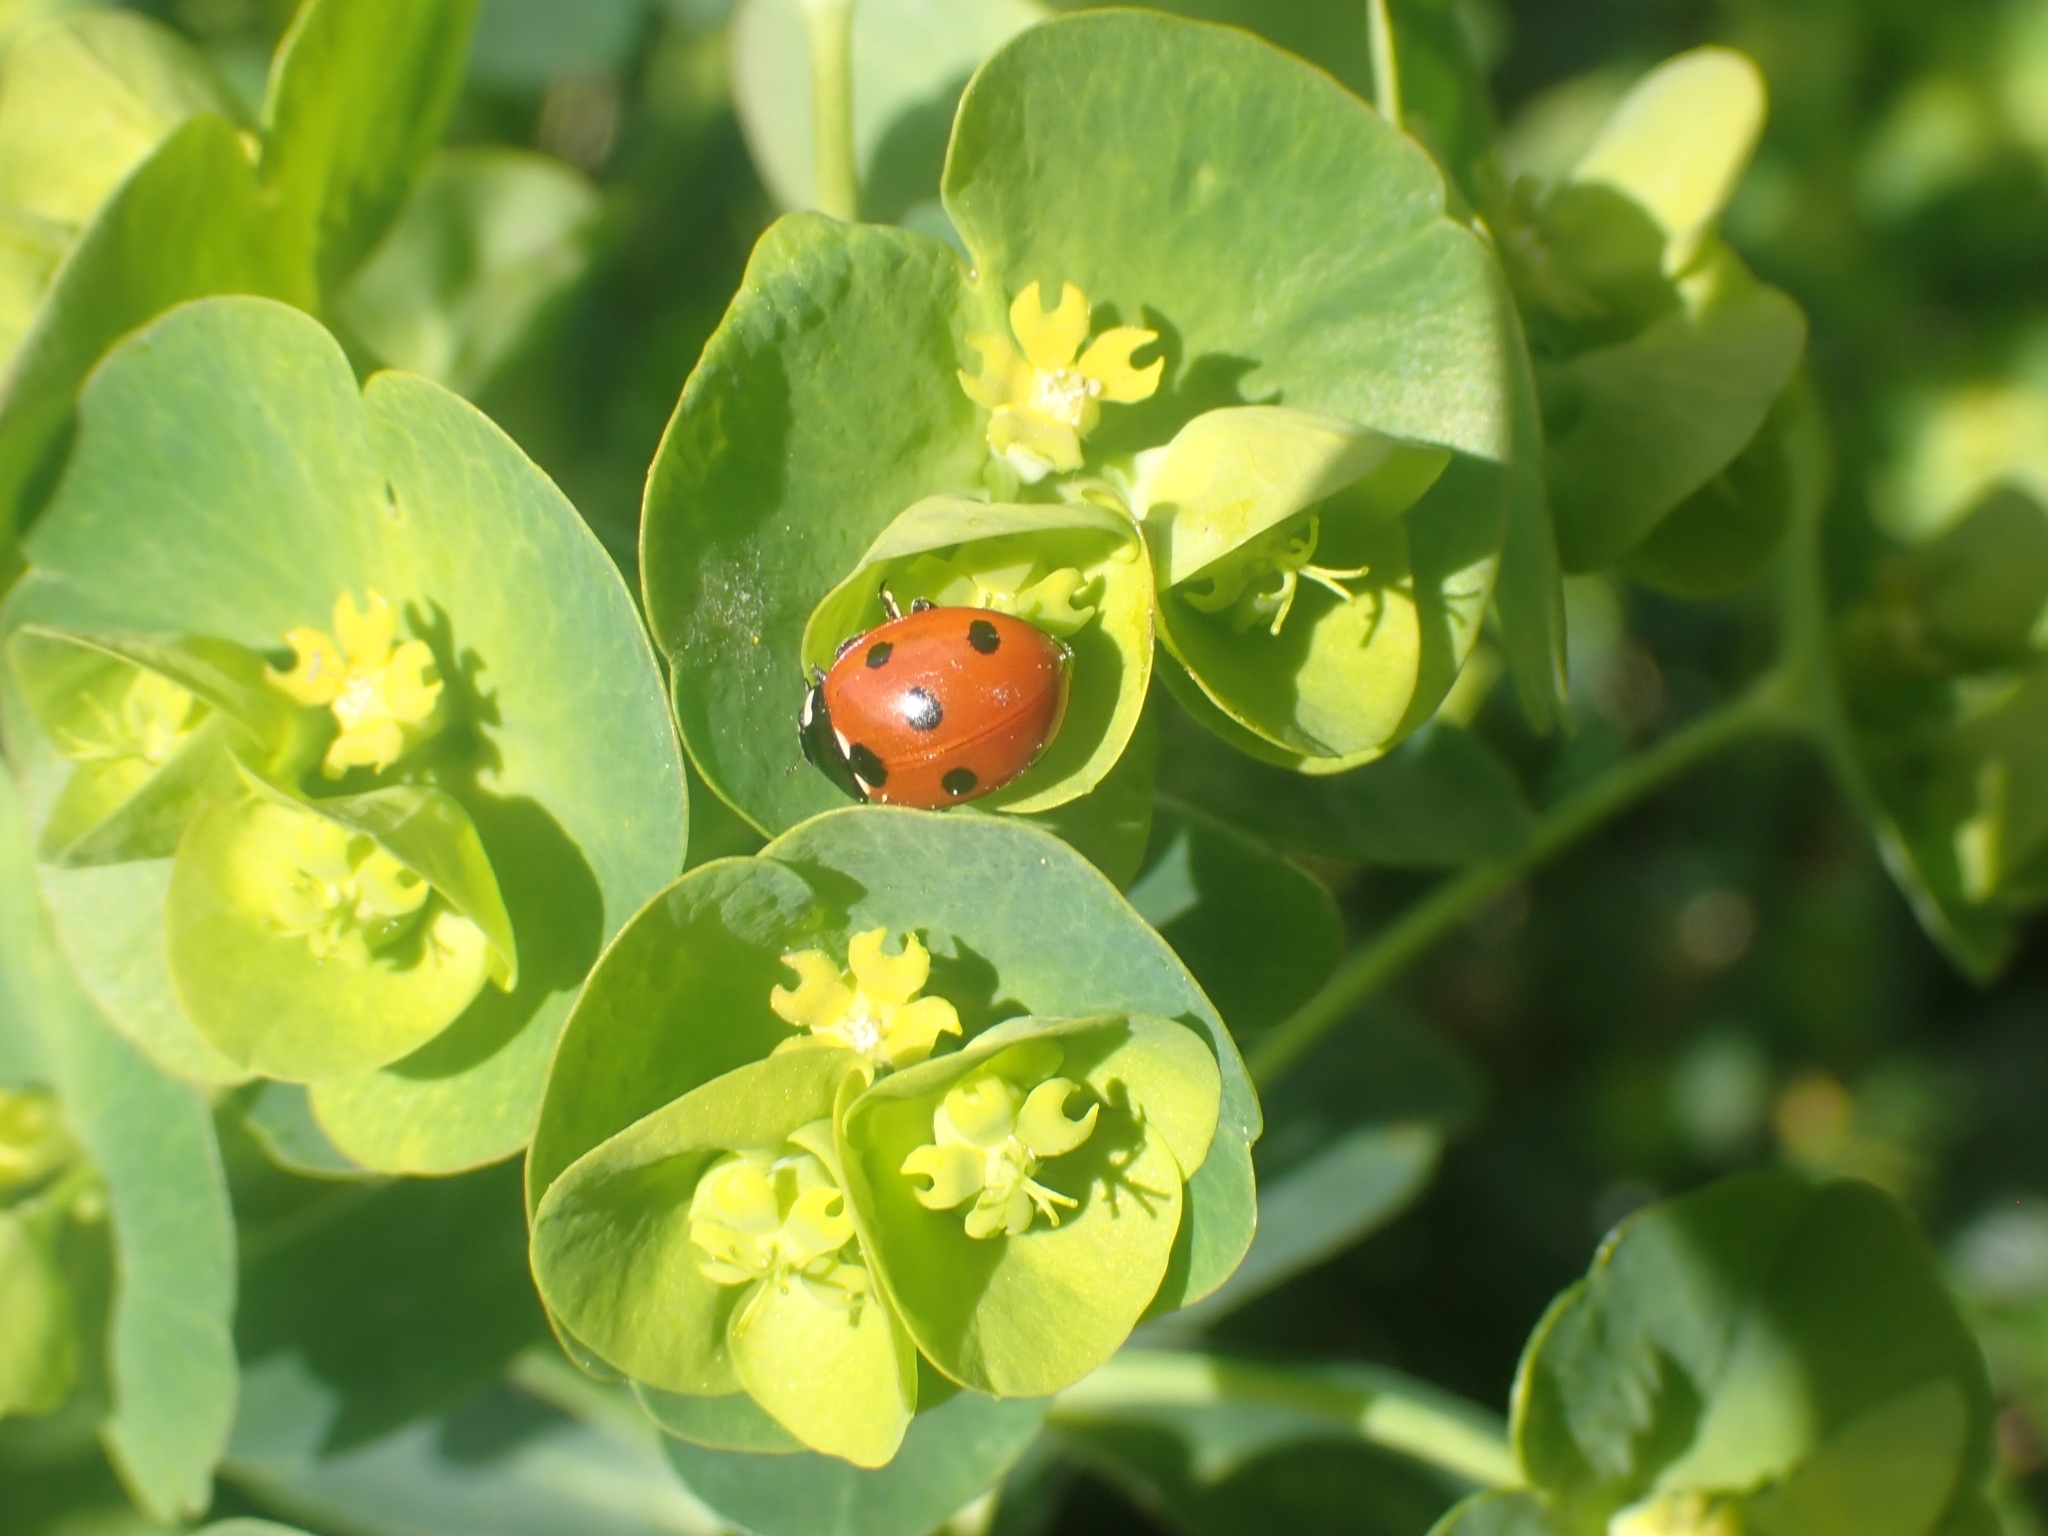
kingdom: Animalia
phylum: Arthropoda
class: Insecta
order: Coleoptera
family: Coccinellidae
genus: Coccinella
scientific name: Coccinella septempunctata
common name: Sevenspotted lady beetle
